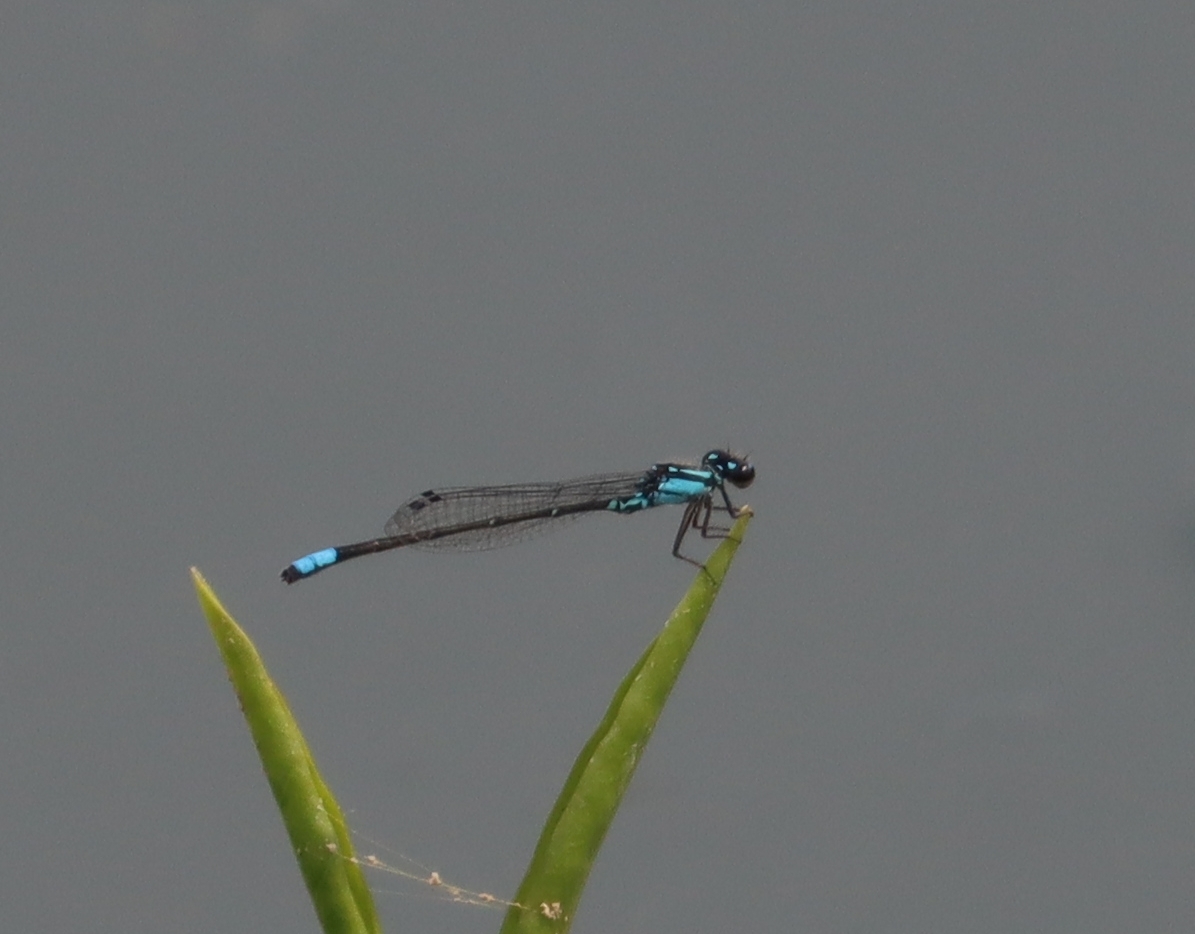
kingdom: Animalia
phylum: Arthropoda
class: Insecta
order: Odonata
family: Coenagrionidae
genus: Enallagma
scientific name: Enallagma geminatum
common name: Skimming bluet
